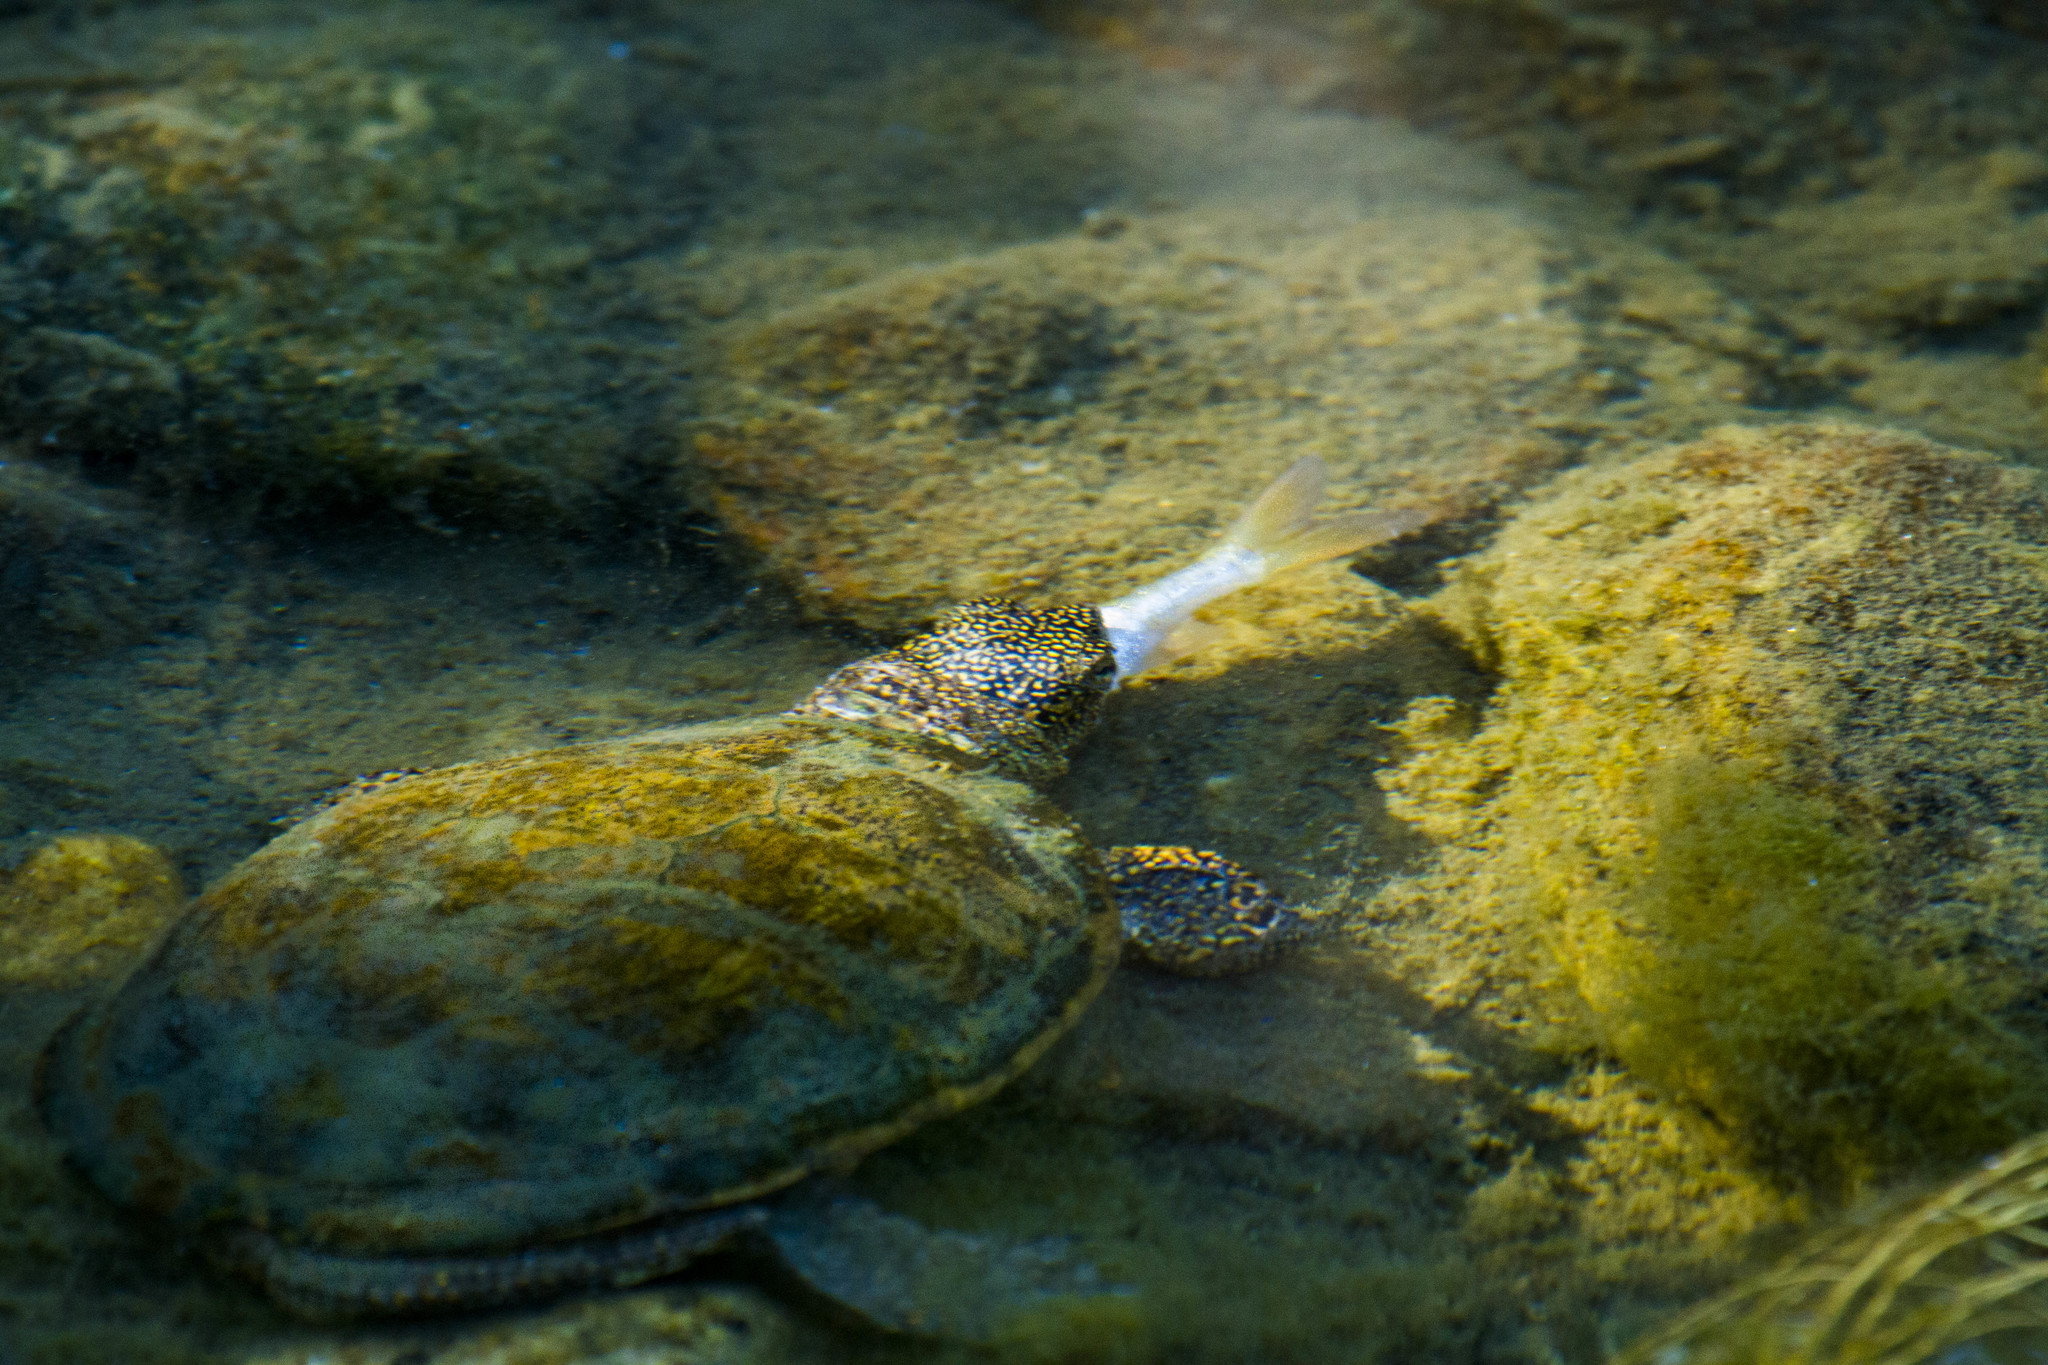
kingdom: Animalia
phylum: Chordata
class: Testudines
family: Emydidae
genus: Actinemys
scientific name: Actinemys marmorata
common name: Western pond turtle
